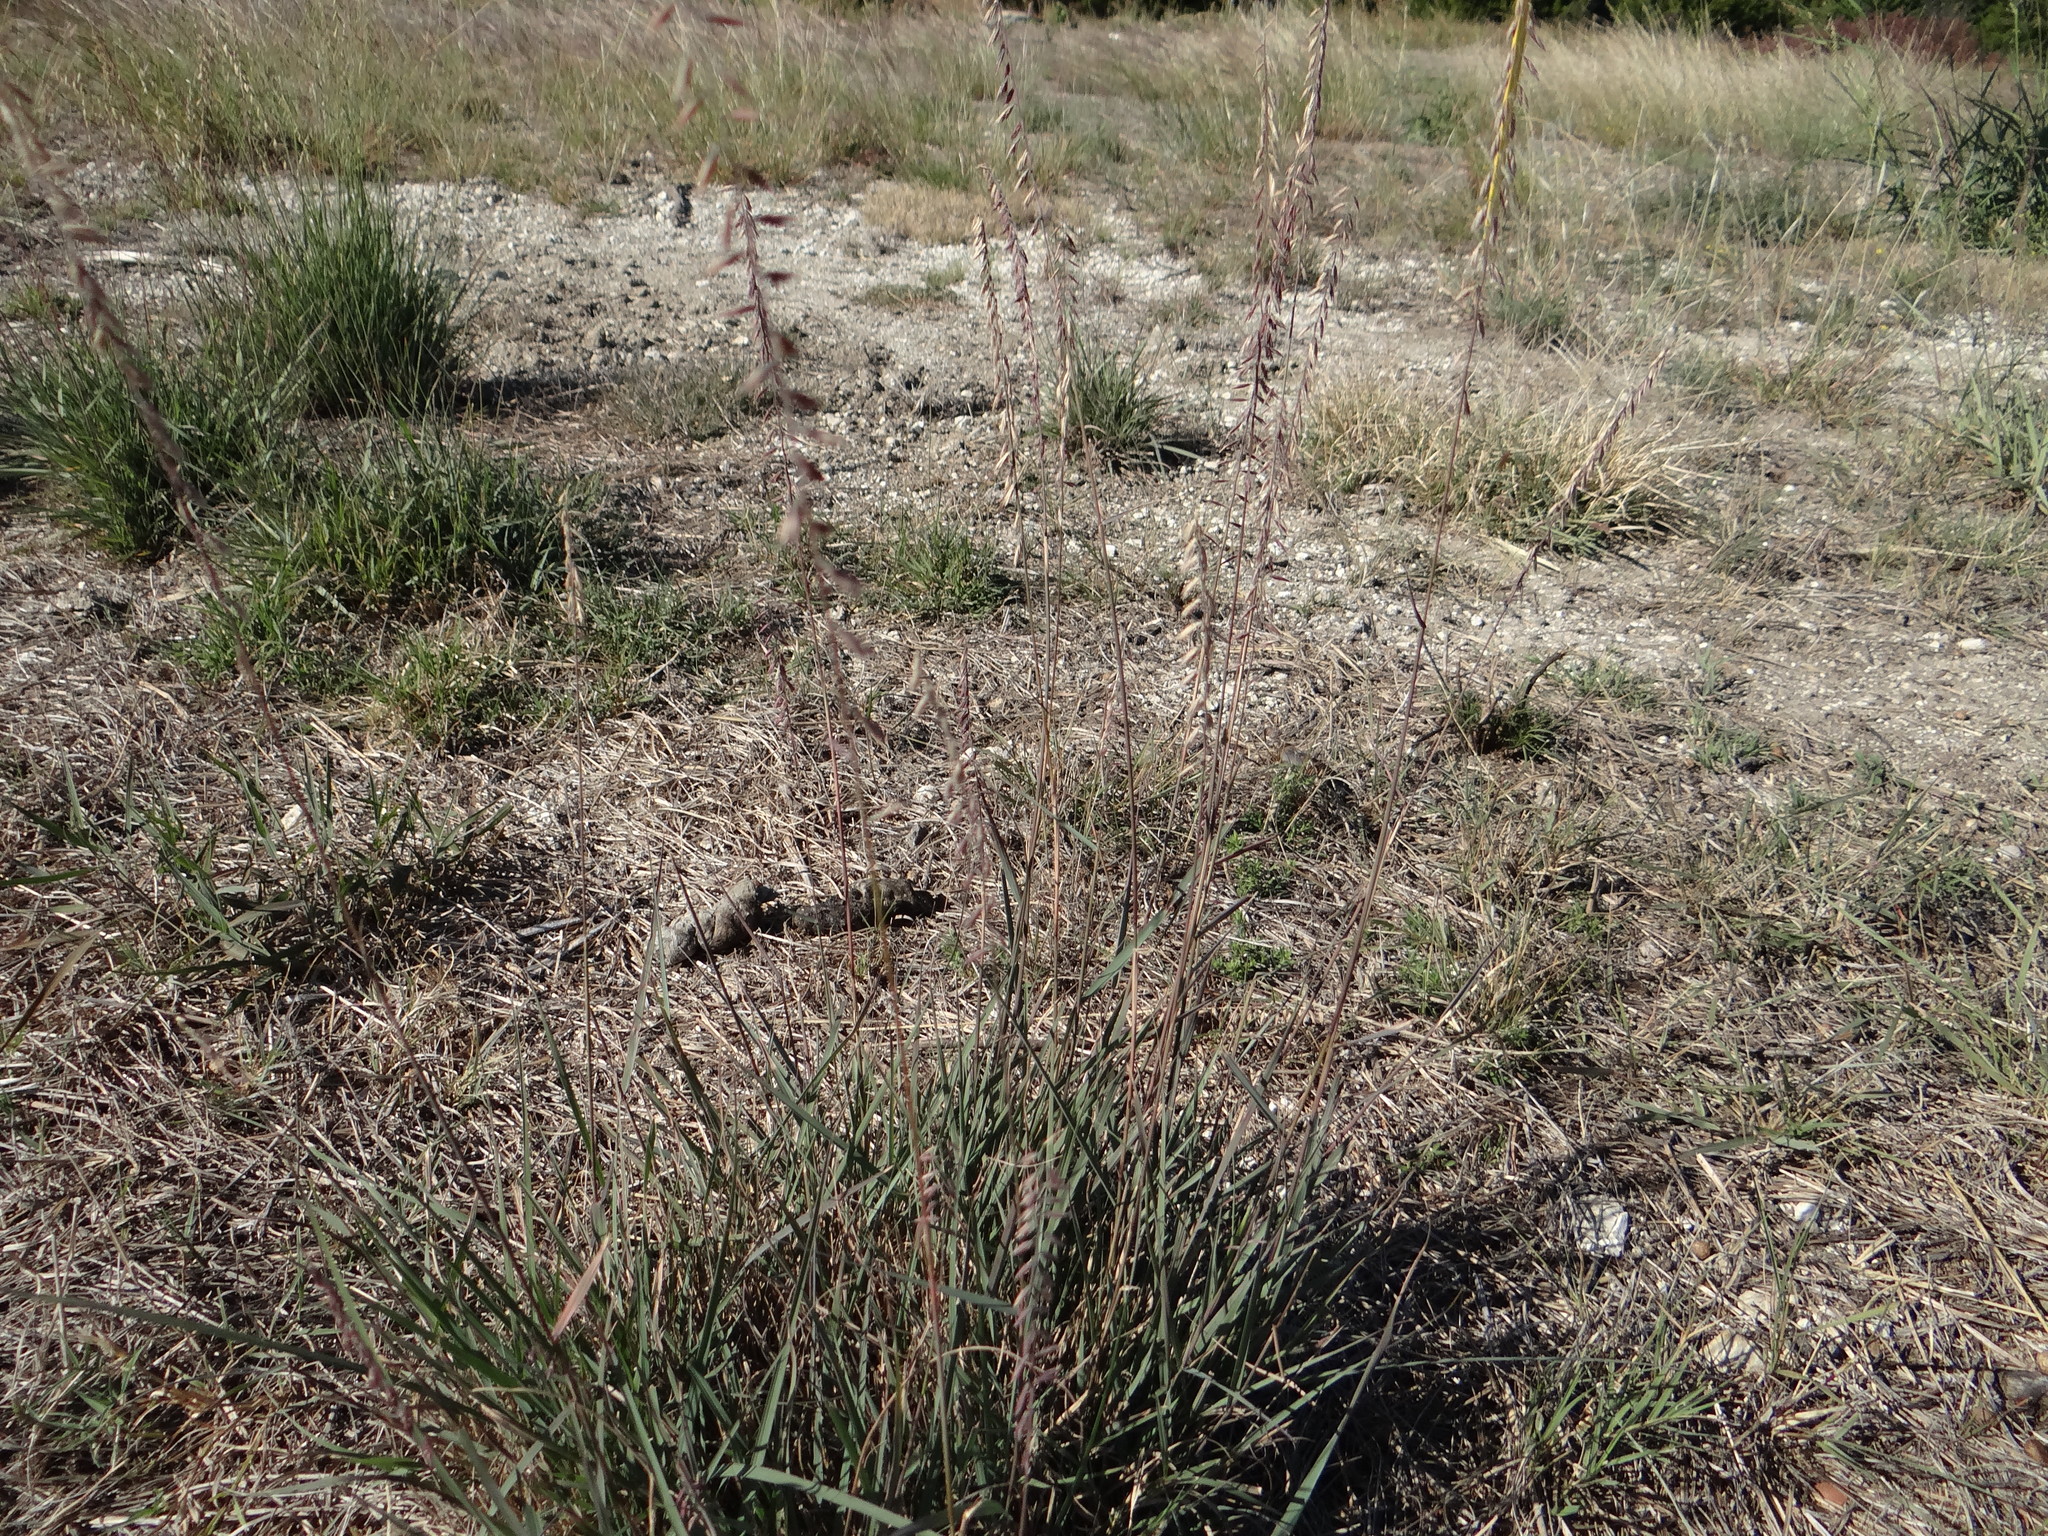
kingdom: Plantae
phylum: Tracheophyta
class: Liliopsida
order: Poales
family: Poaceae
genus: Bouteloua
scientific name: Bouteloua curtipendula
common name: Side-oats grama
